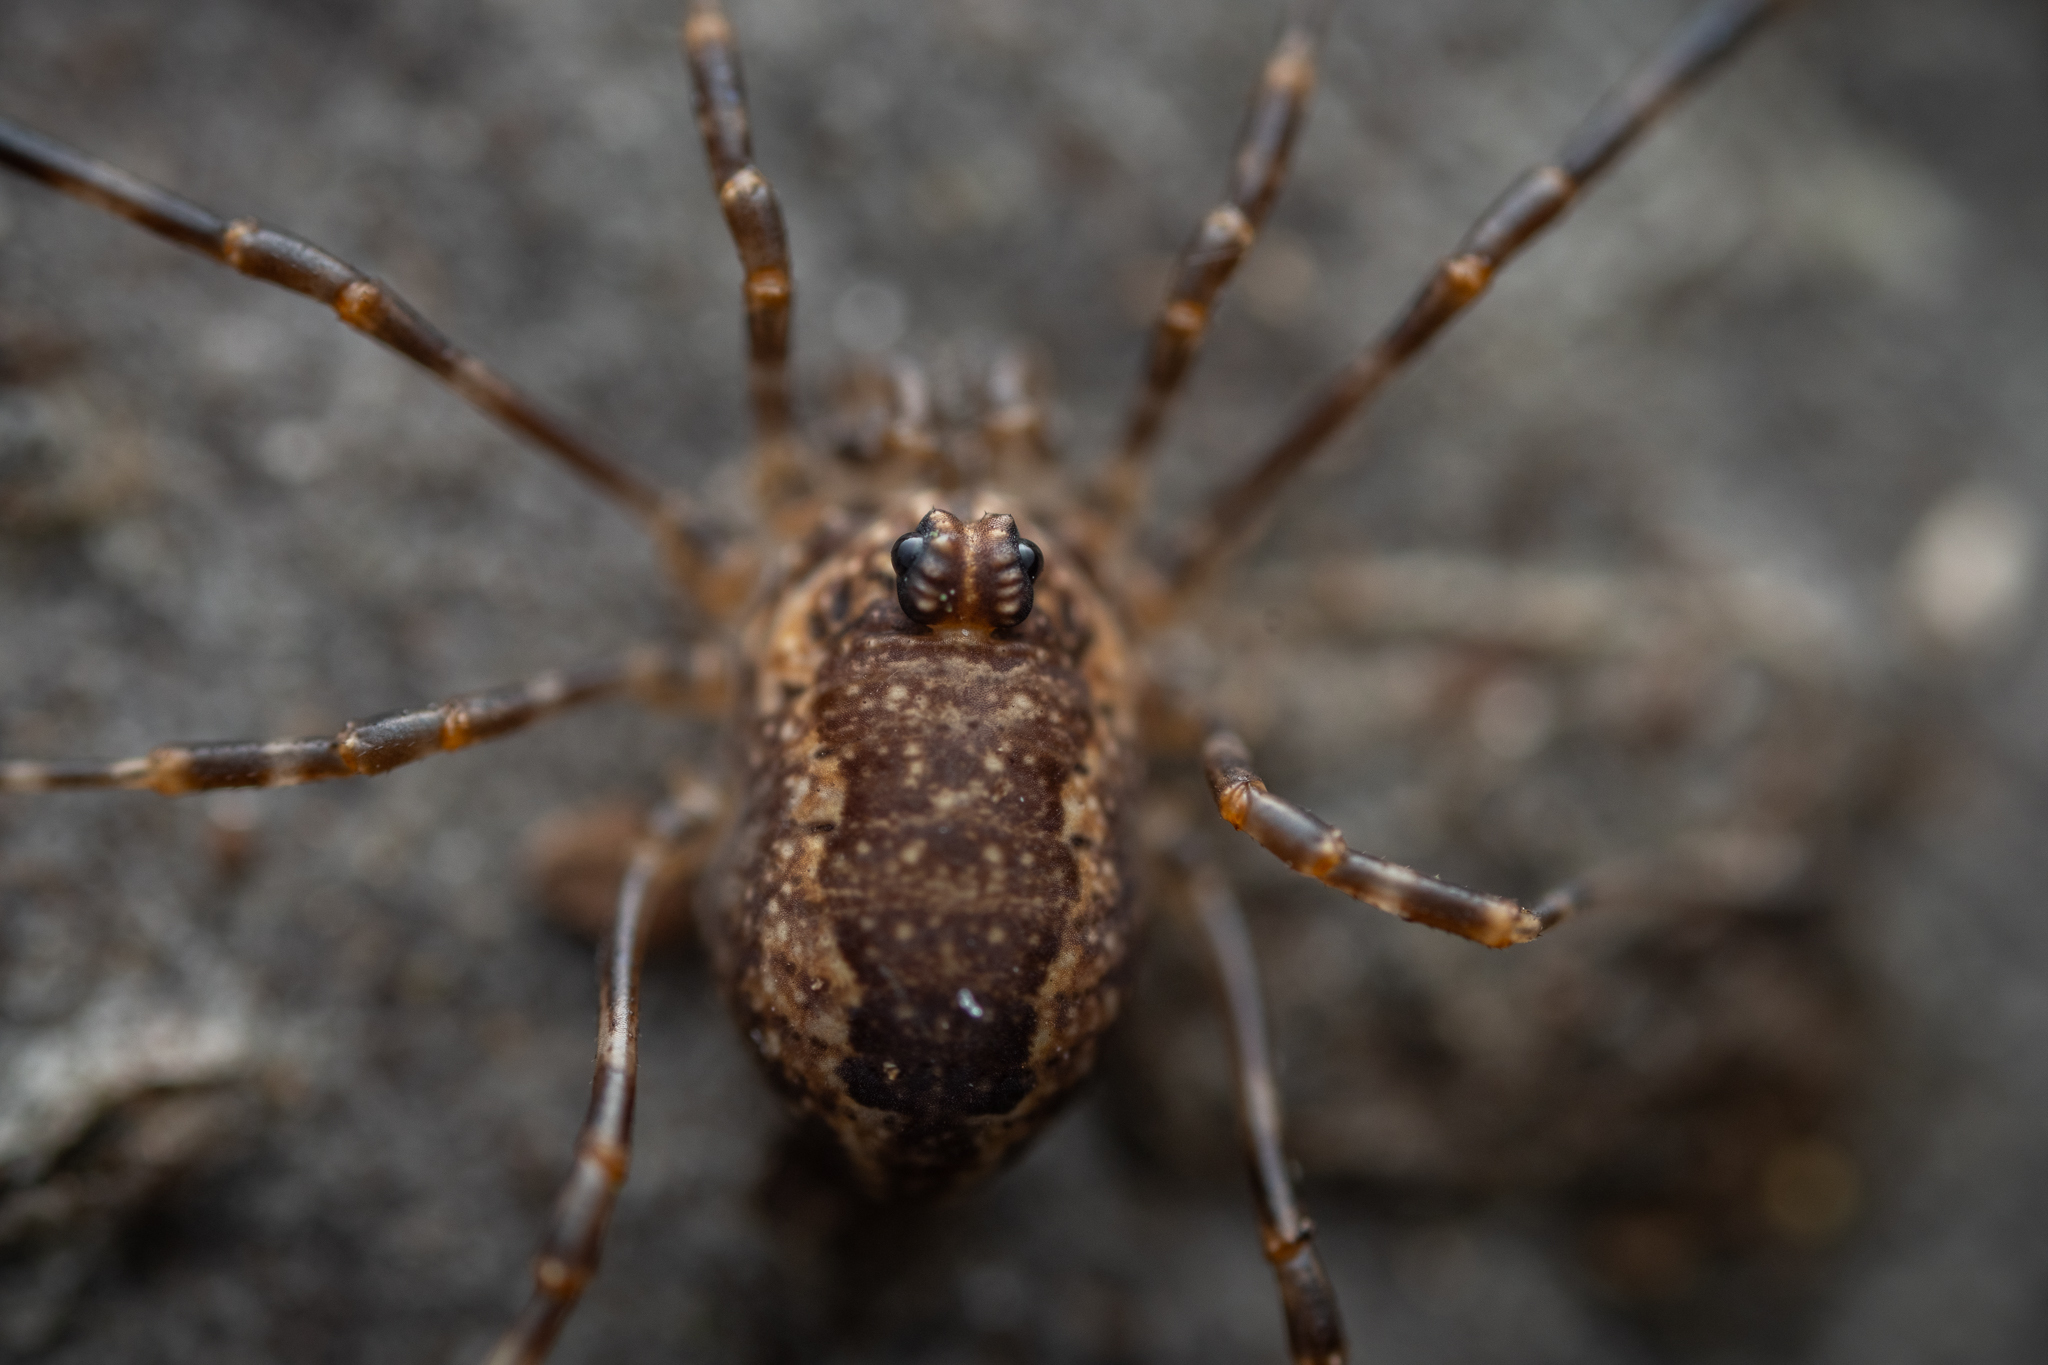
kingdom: Animalia
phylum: Arthropoda
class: Arachnida
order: Opiliones
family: Phalangiidae
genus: Rilaena
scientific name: Rilaena triangularis
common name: Spring harvestman
